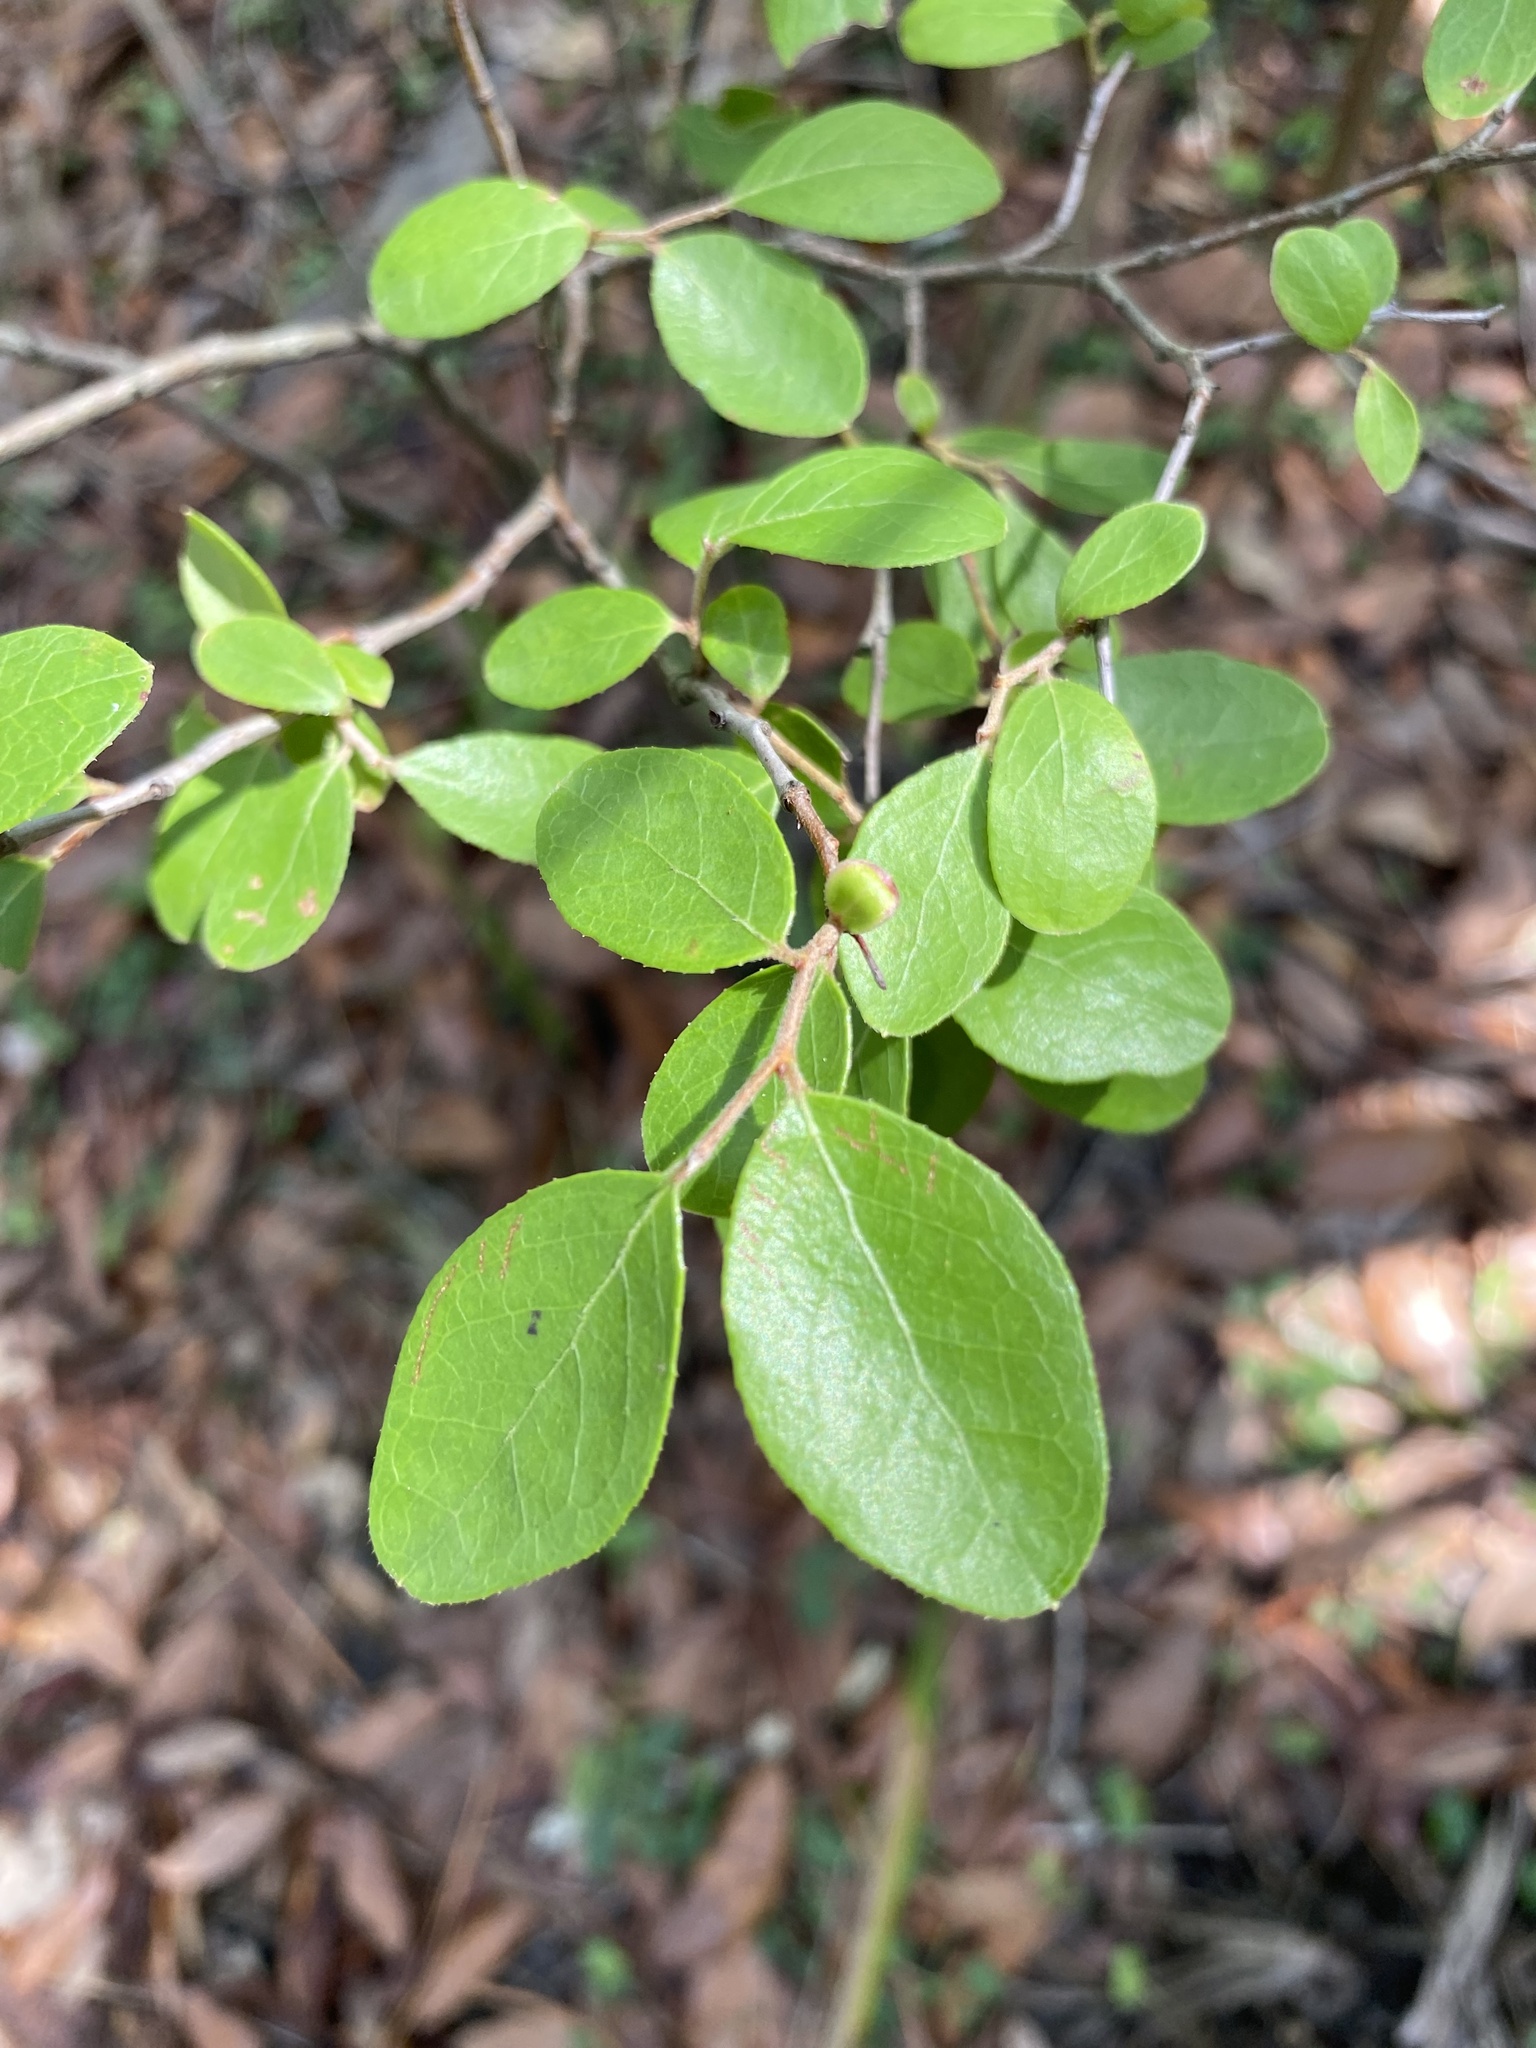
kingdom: Plantae
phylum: Tracheophyta
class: Magnoliopsida
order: Ericales
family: Ericaceae
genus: Vaccinium
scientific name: Vaccinium arboreum
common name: Farkleberry
